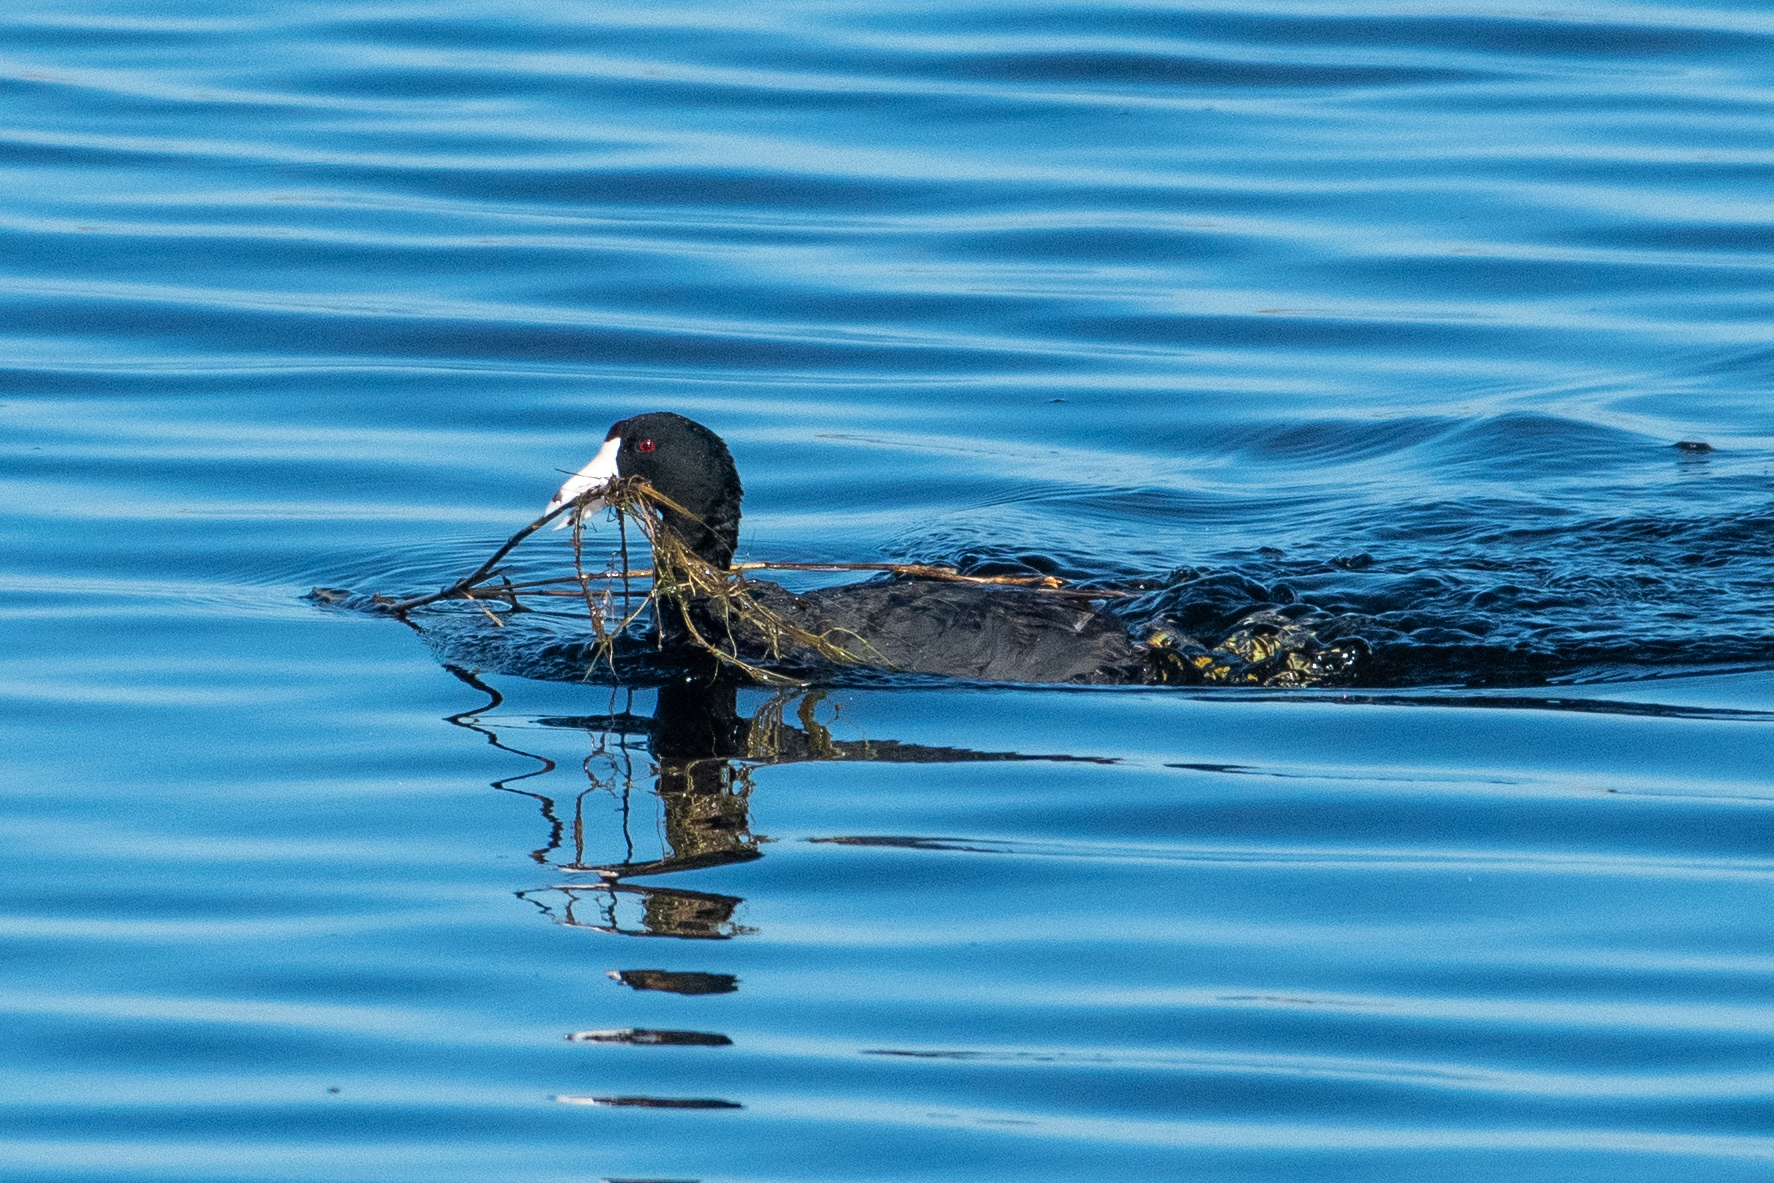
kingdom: Animalia
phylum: Chordata
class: Aves
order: Gruiformes
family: Rallidae
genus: Fulica
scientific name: Fulica americana
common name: American coot
